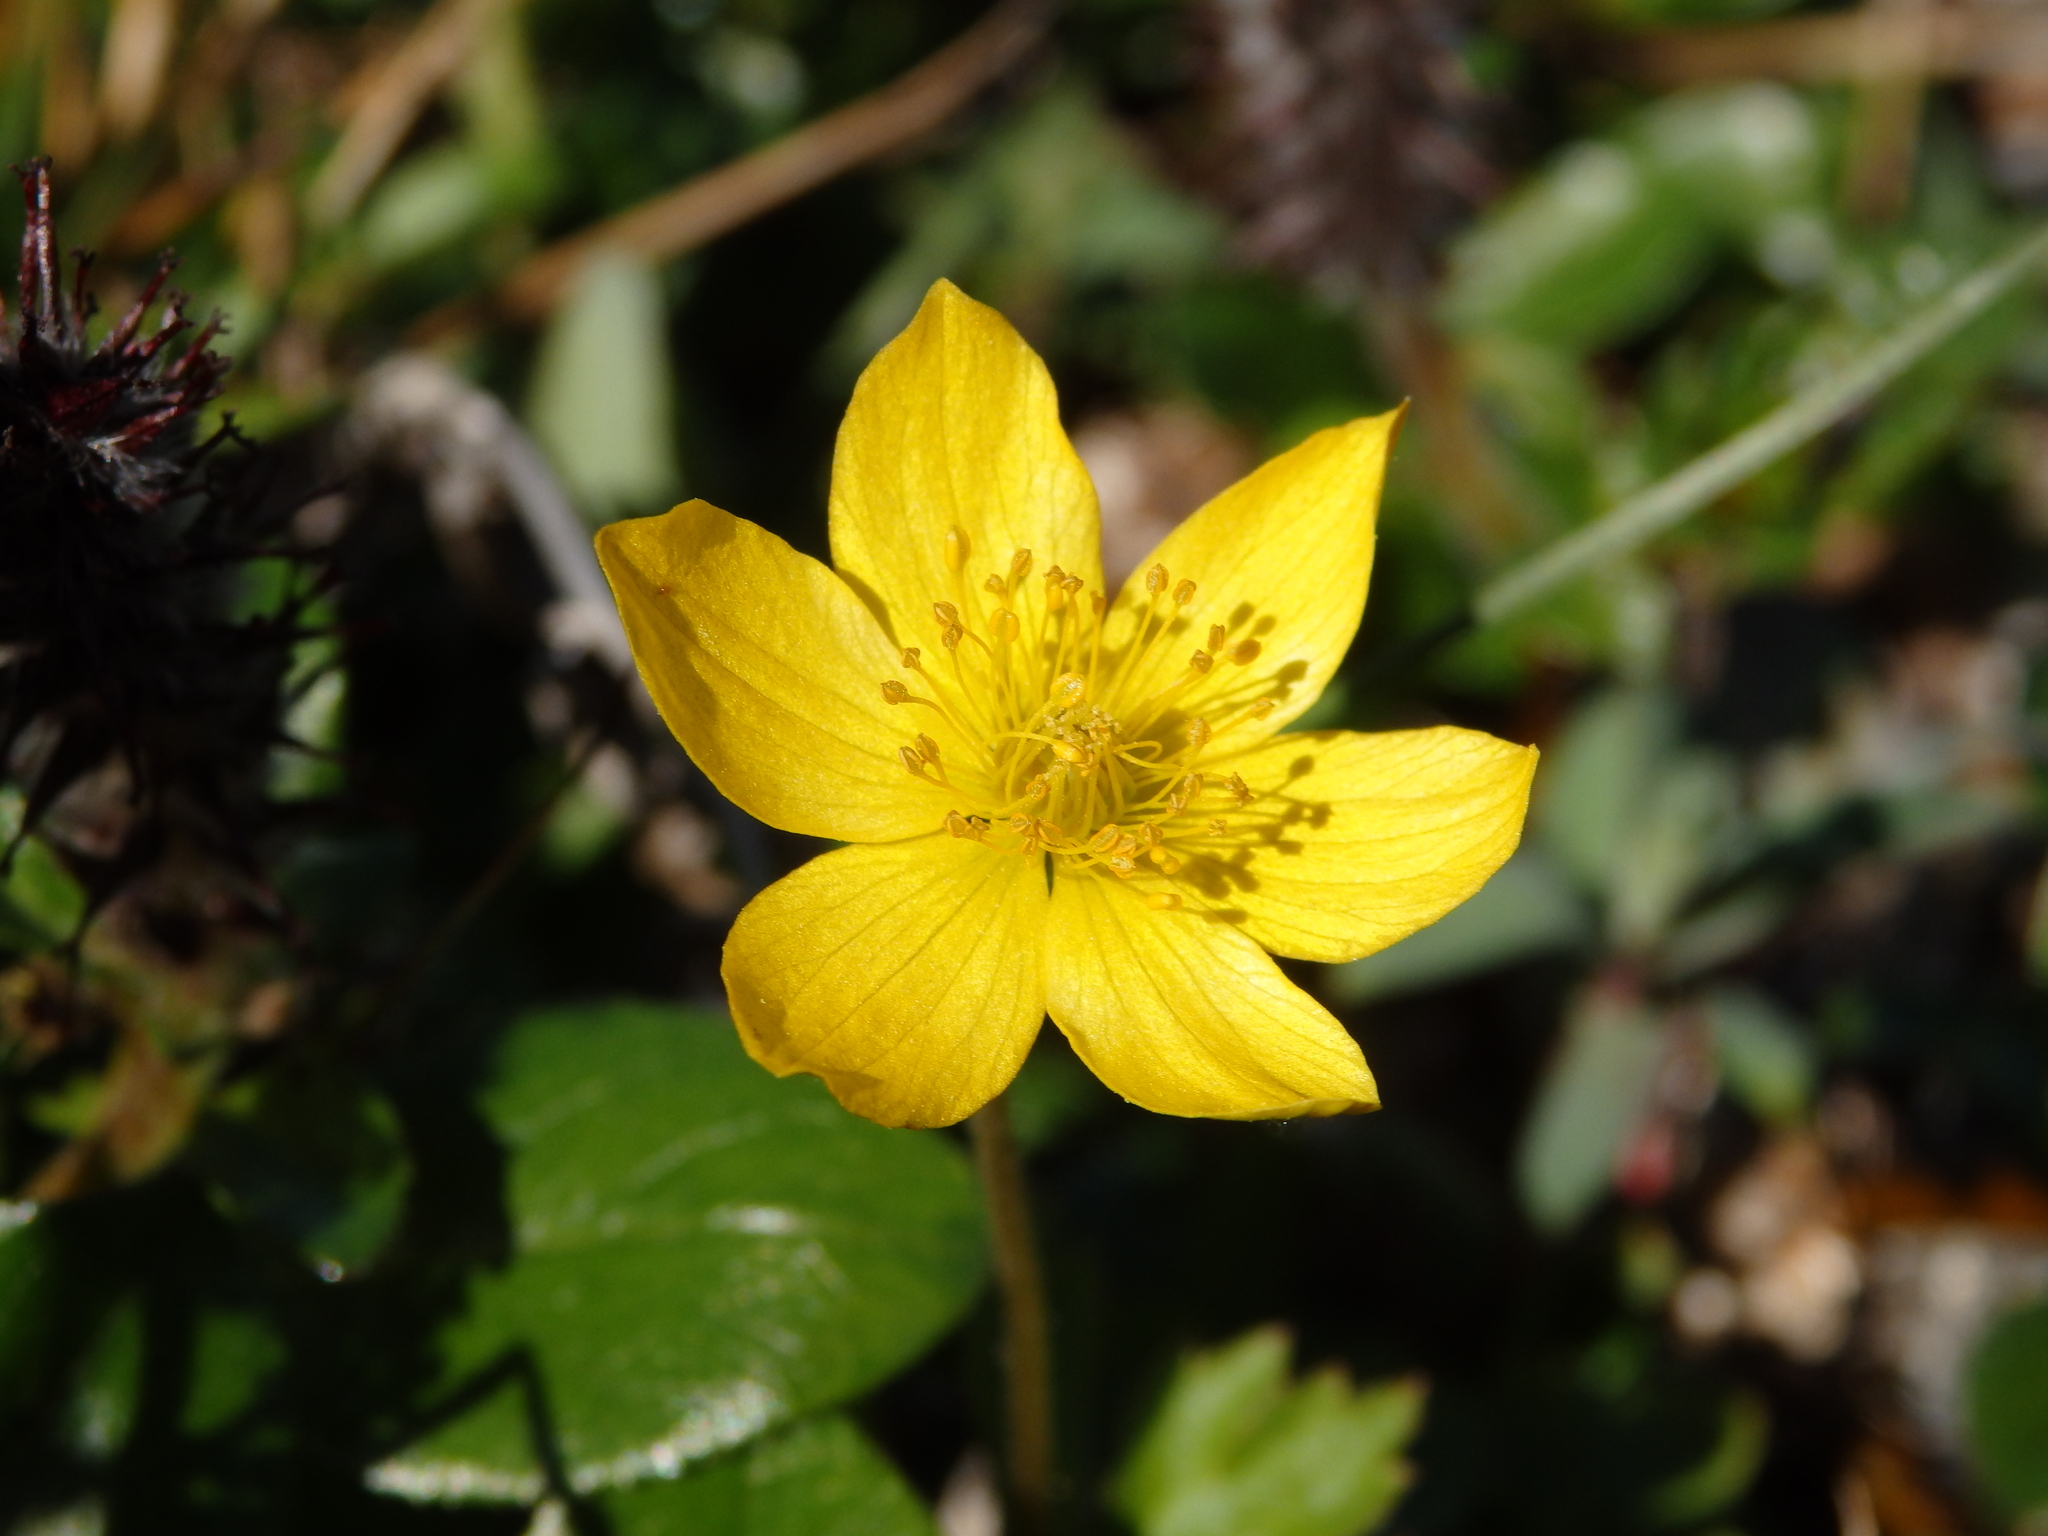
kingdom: Plantae
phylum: Tracheophyta
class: Magnoliopsida
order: Ranunculales
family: Ranunculaceae
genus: Anemonastrum
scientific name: Anemonastrum richardsonii
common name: Richardson's anemone
